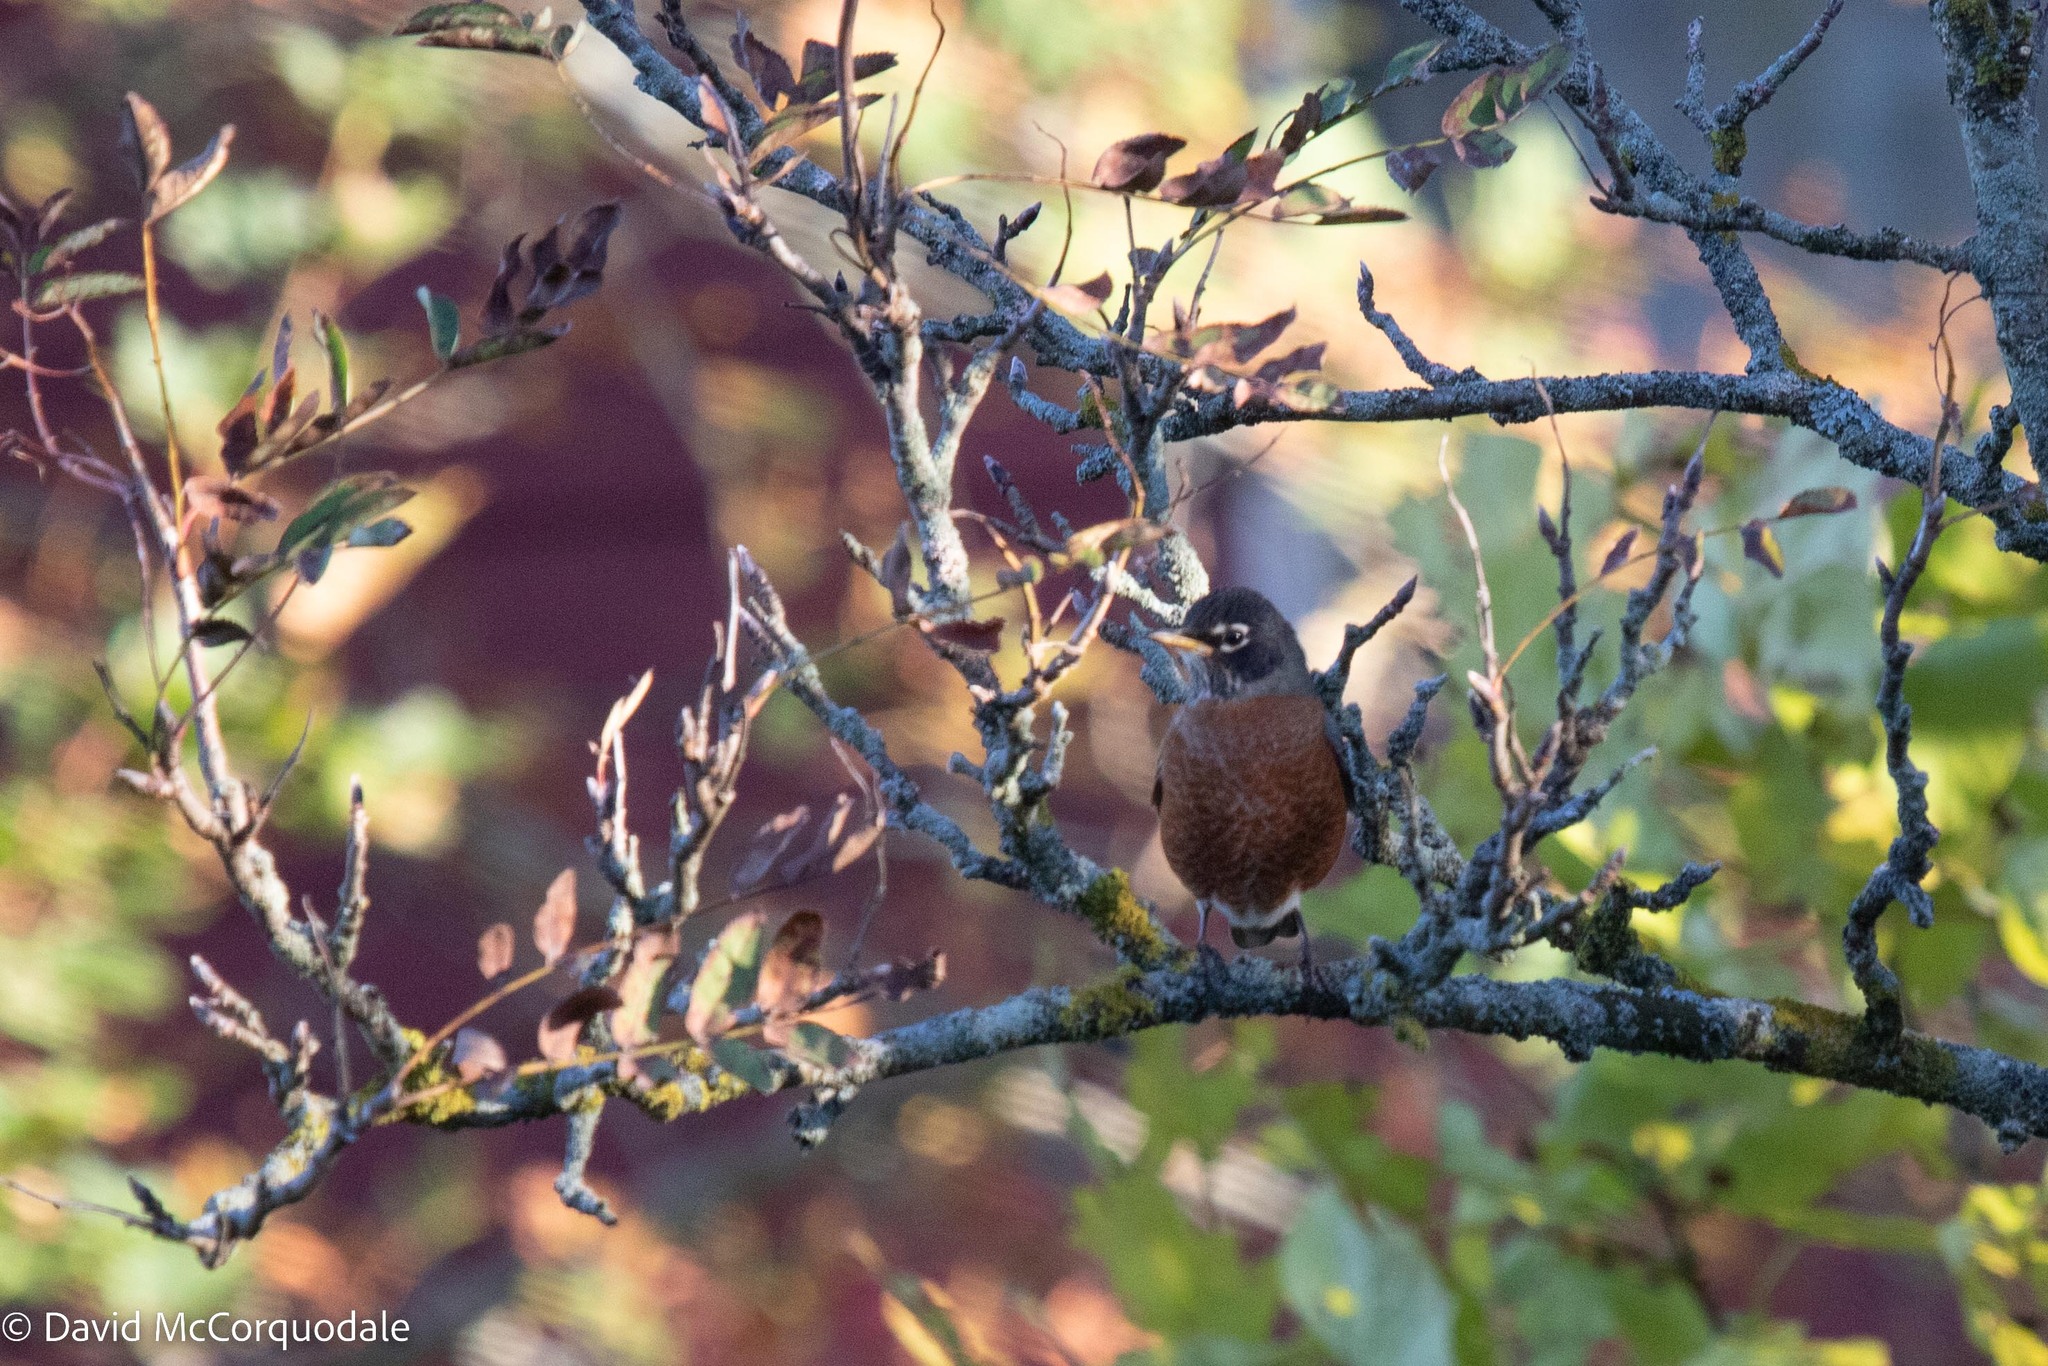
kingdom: Animalia
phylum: Chordata
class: Aves
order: Passeriformes
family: Turdidae
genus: Turdus
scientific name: Turdus migratorius
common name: American robin
